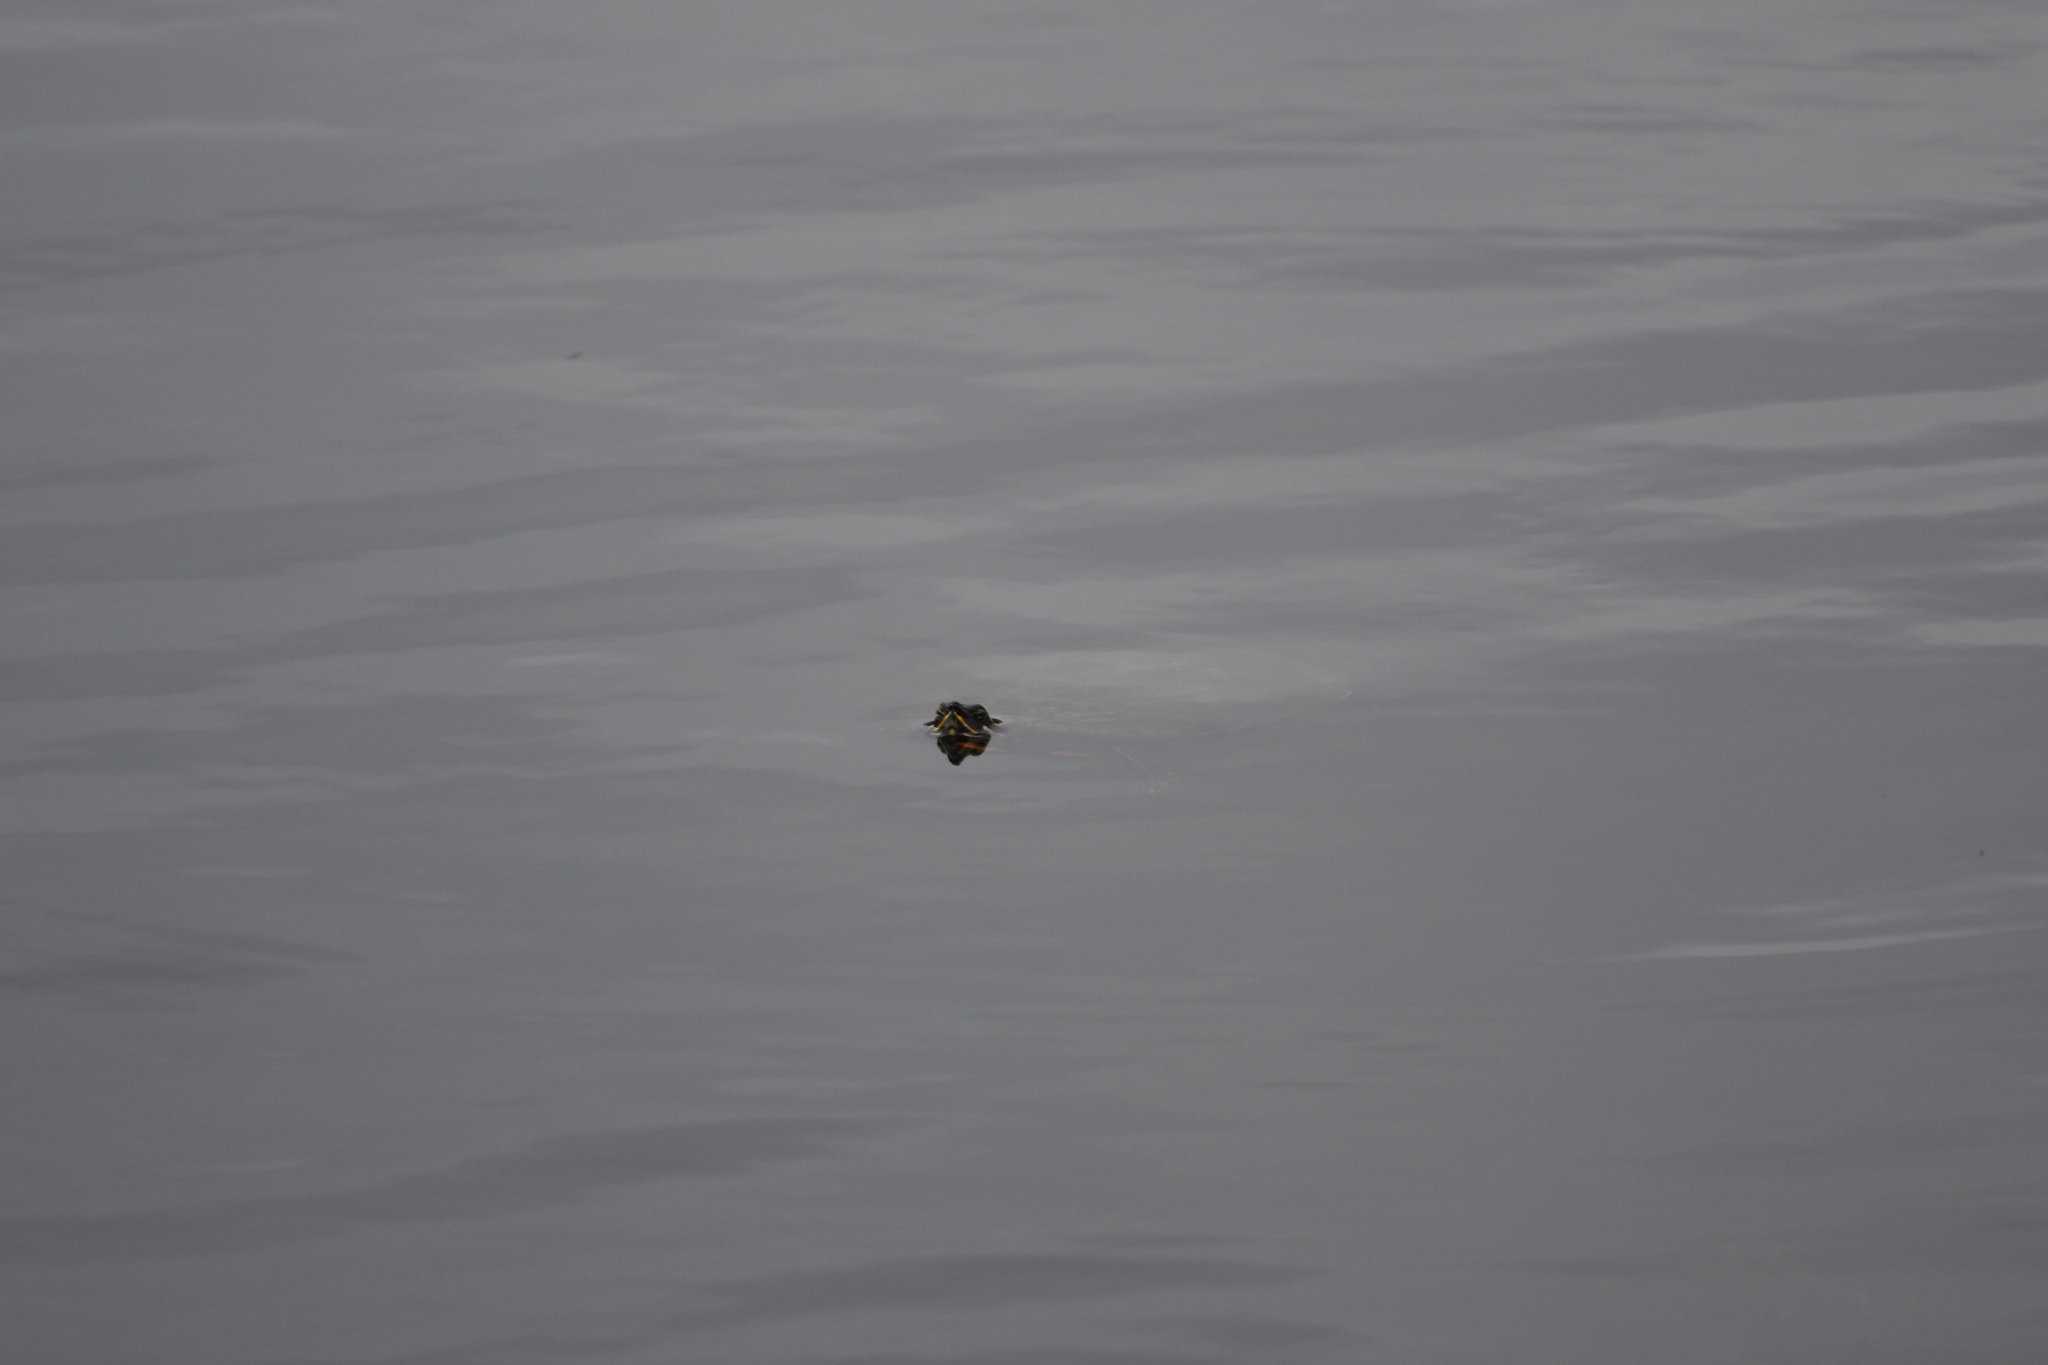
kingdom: Animalia
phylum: Chordata
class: Testudines
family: Emydidae
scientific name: Emydidae
